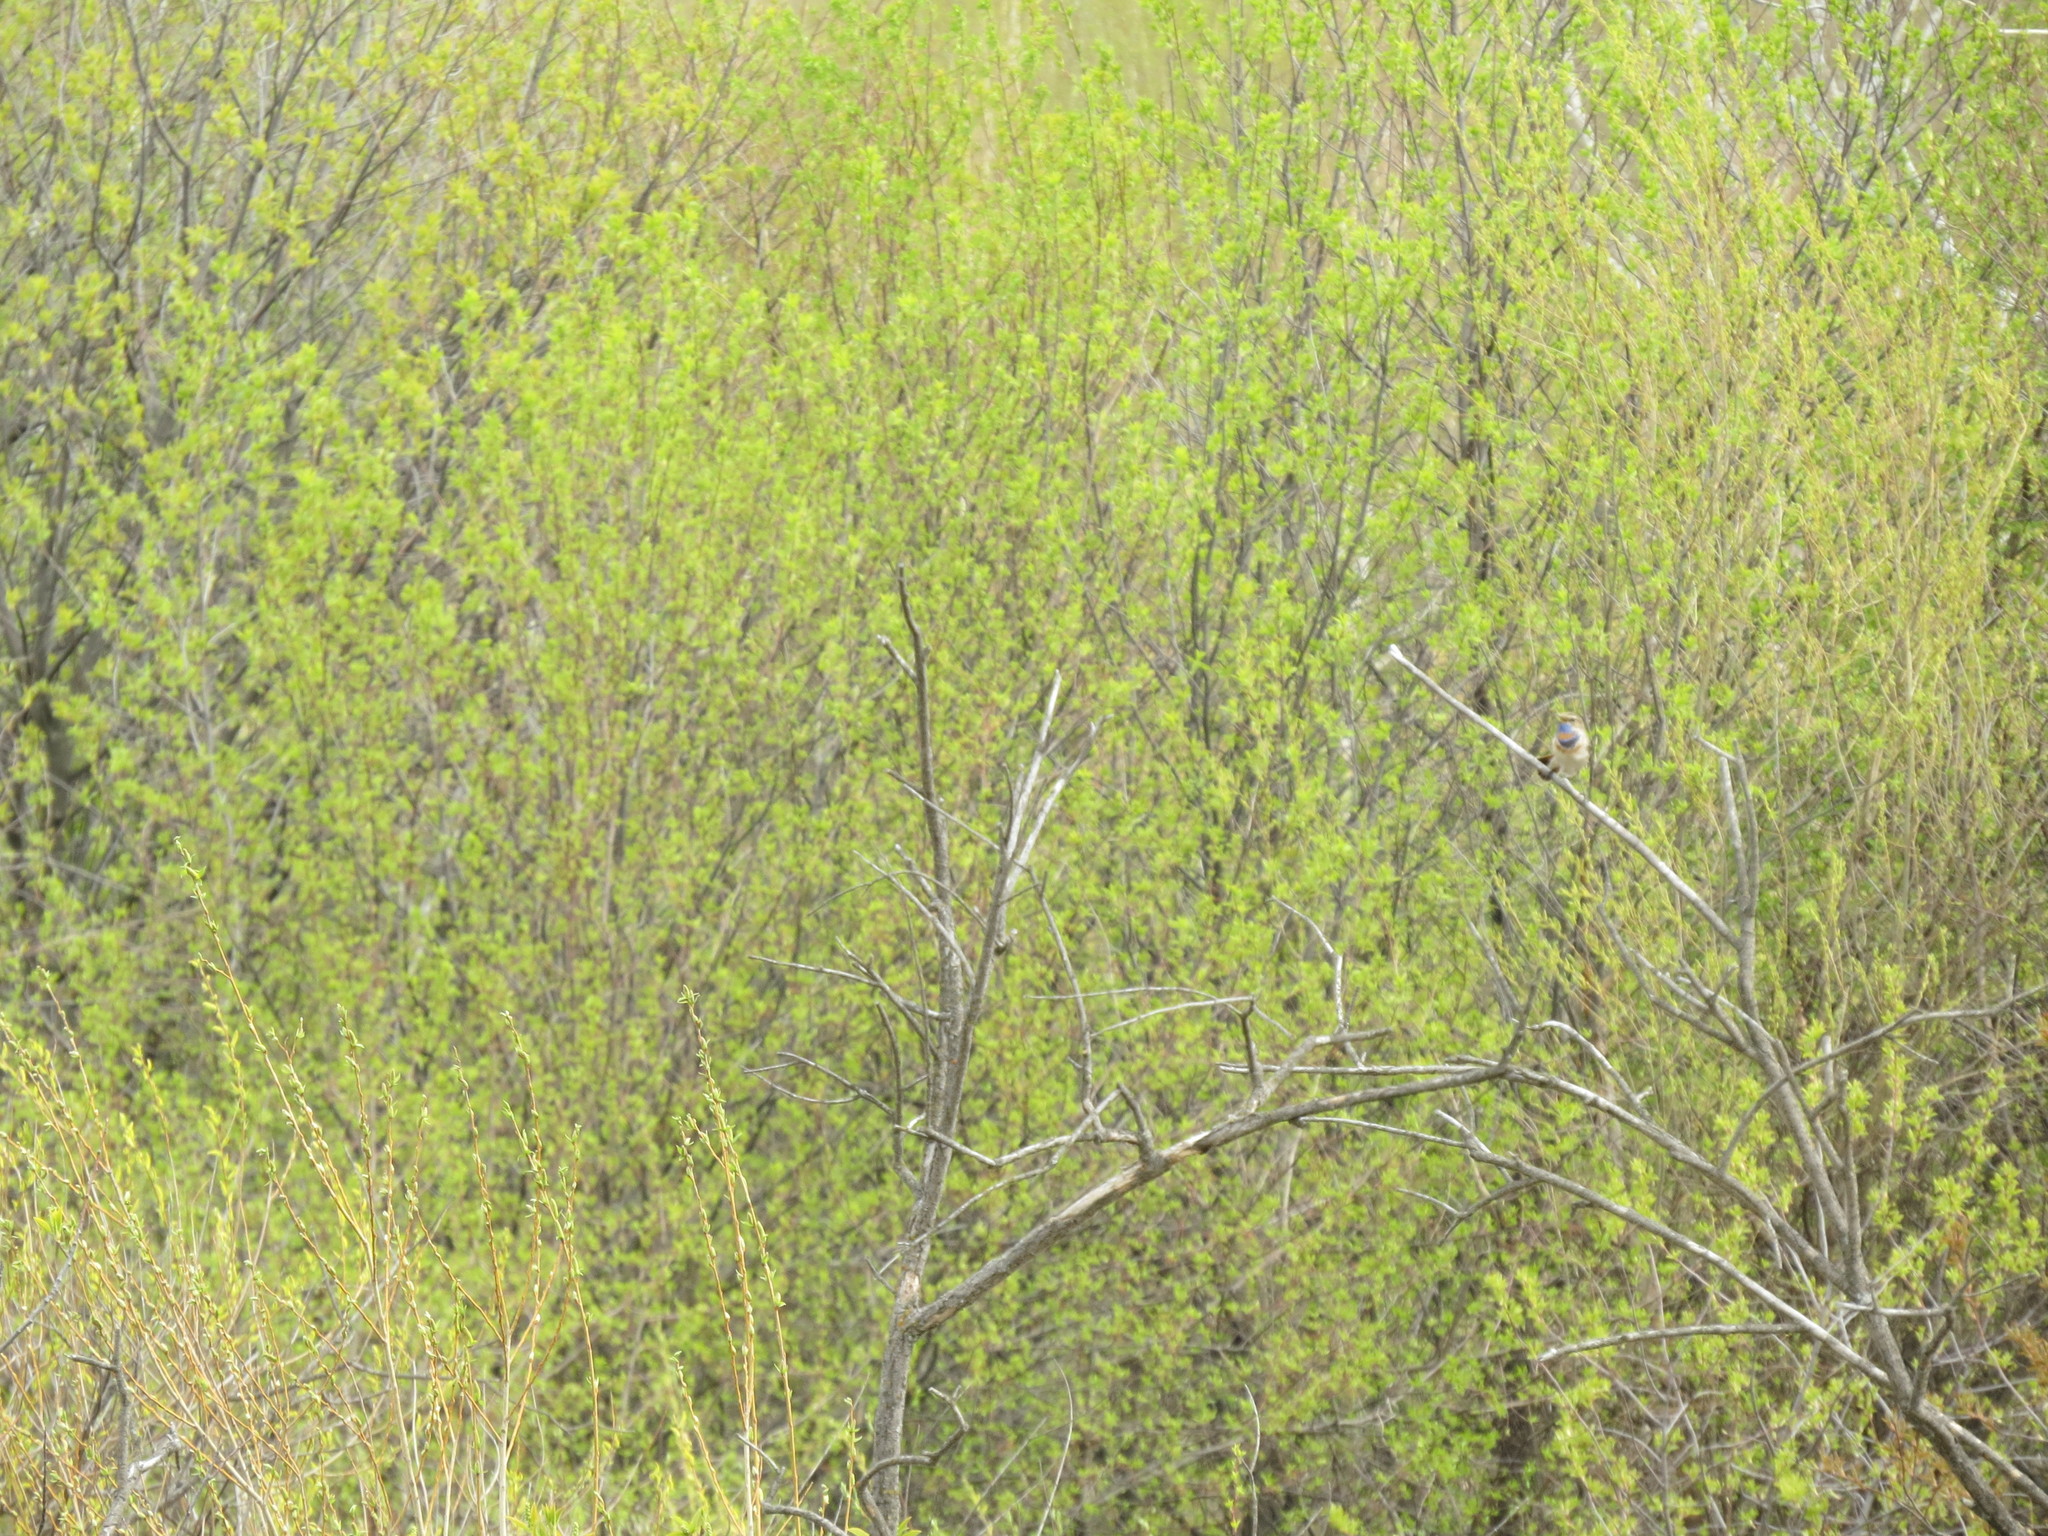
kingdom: Animalia
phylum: Chordata
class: Aves
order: Passeriformes
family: Muscicapidae
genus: Luscinia
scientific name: Luscinia svecica
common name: Bluethroat
